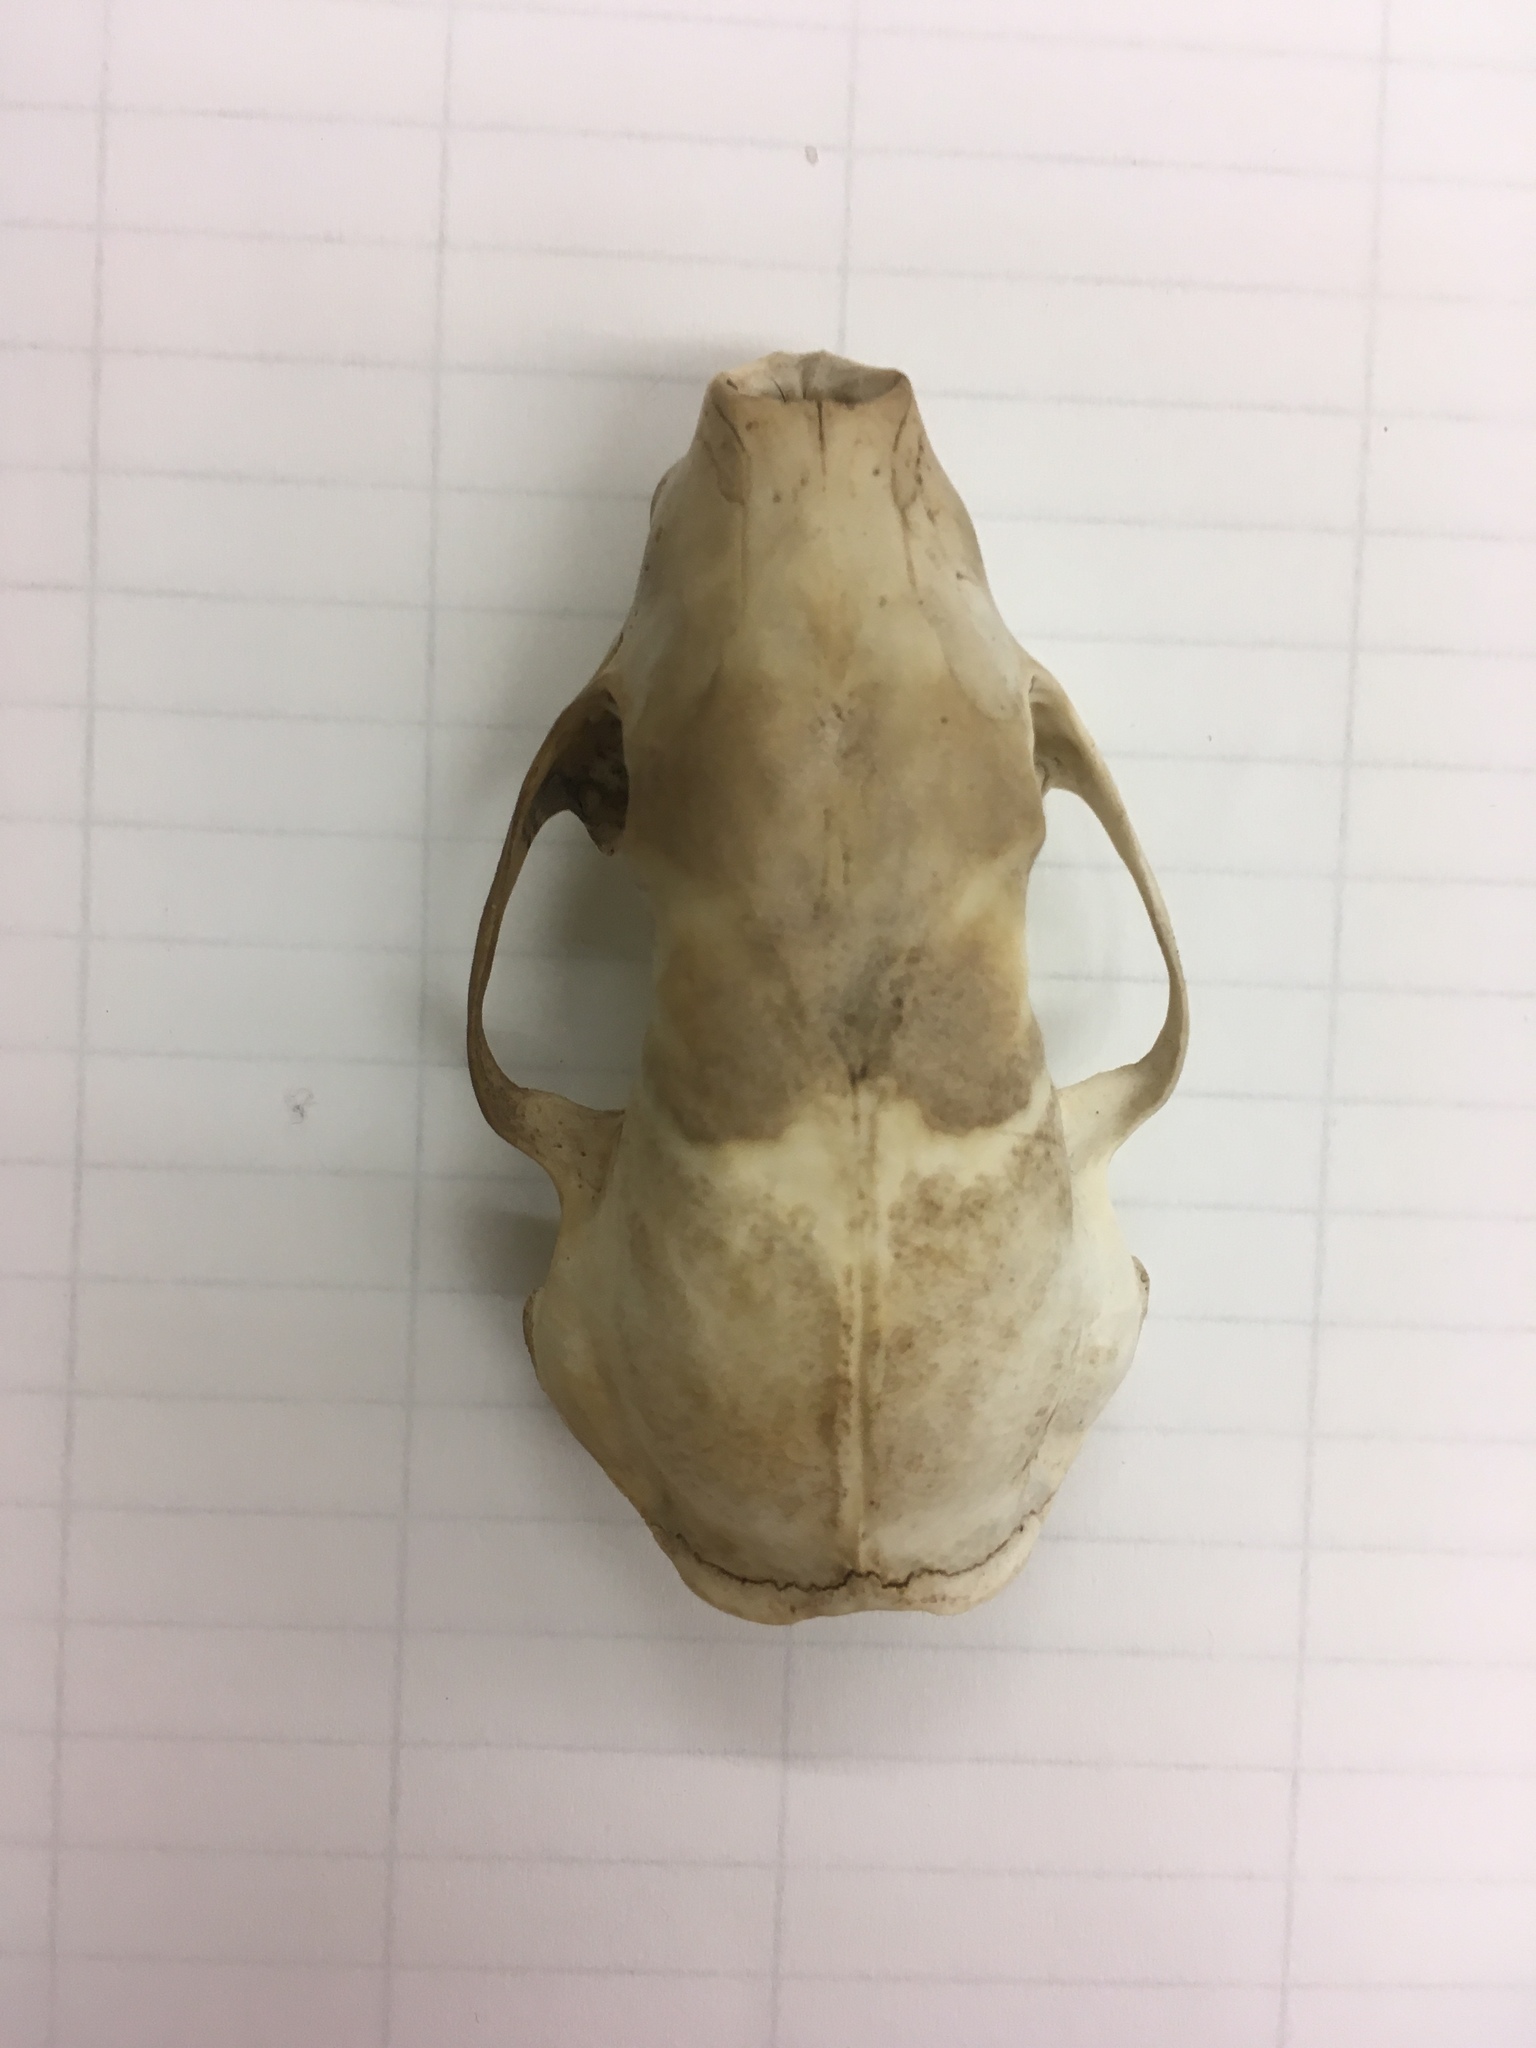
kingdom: Animalia
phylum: Chordata
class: Mammalia
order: Carnivora
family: Mephitidae
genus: Mephitis
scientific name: Mephitis mephitis
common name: Striped skunk
